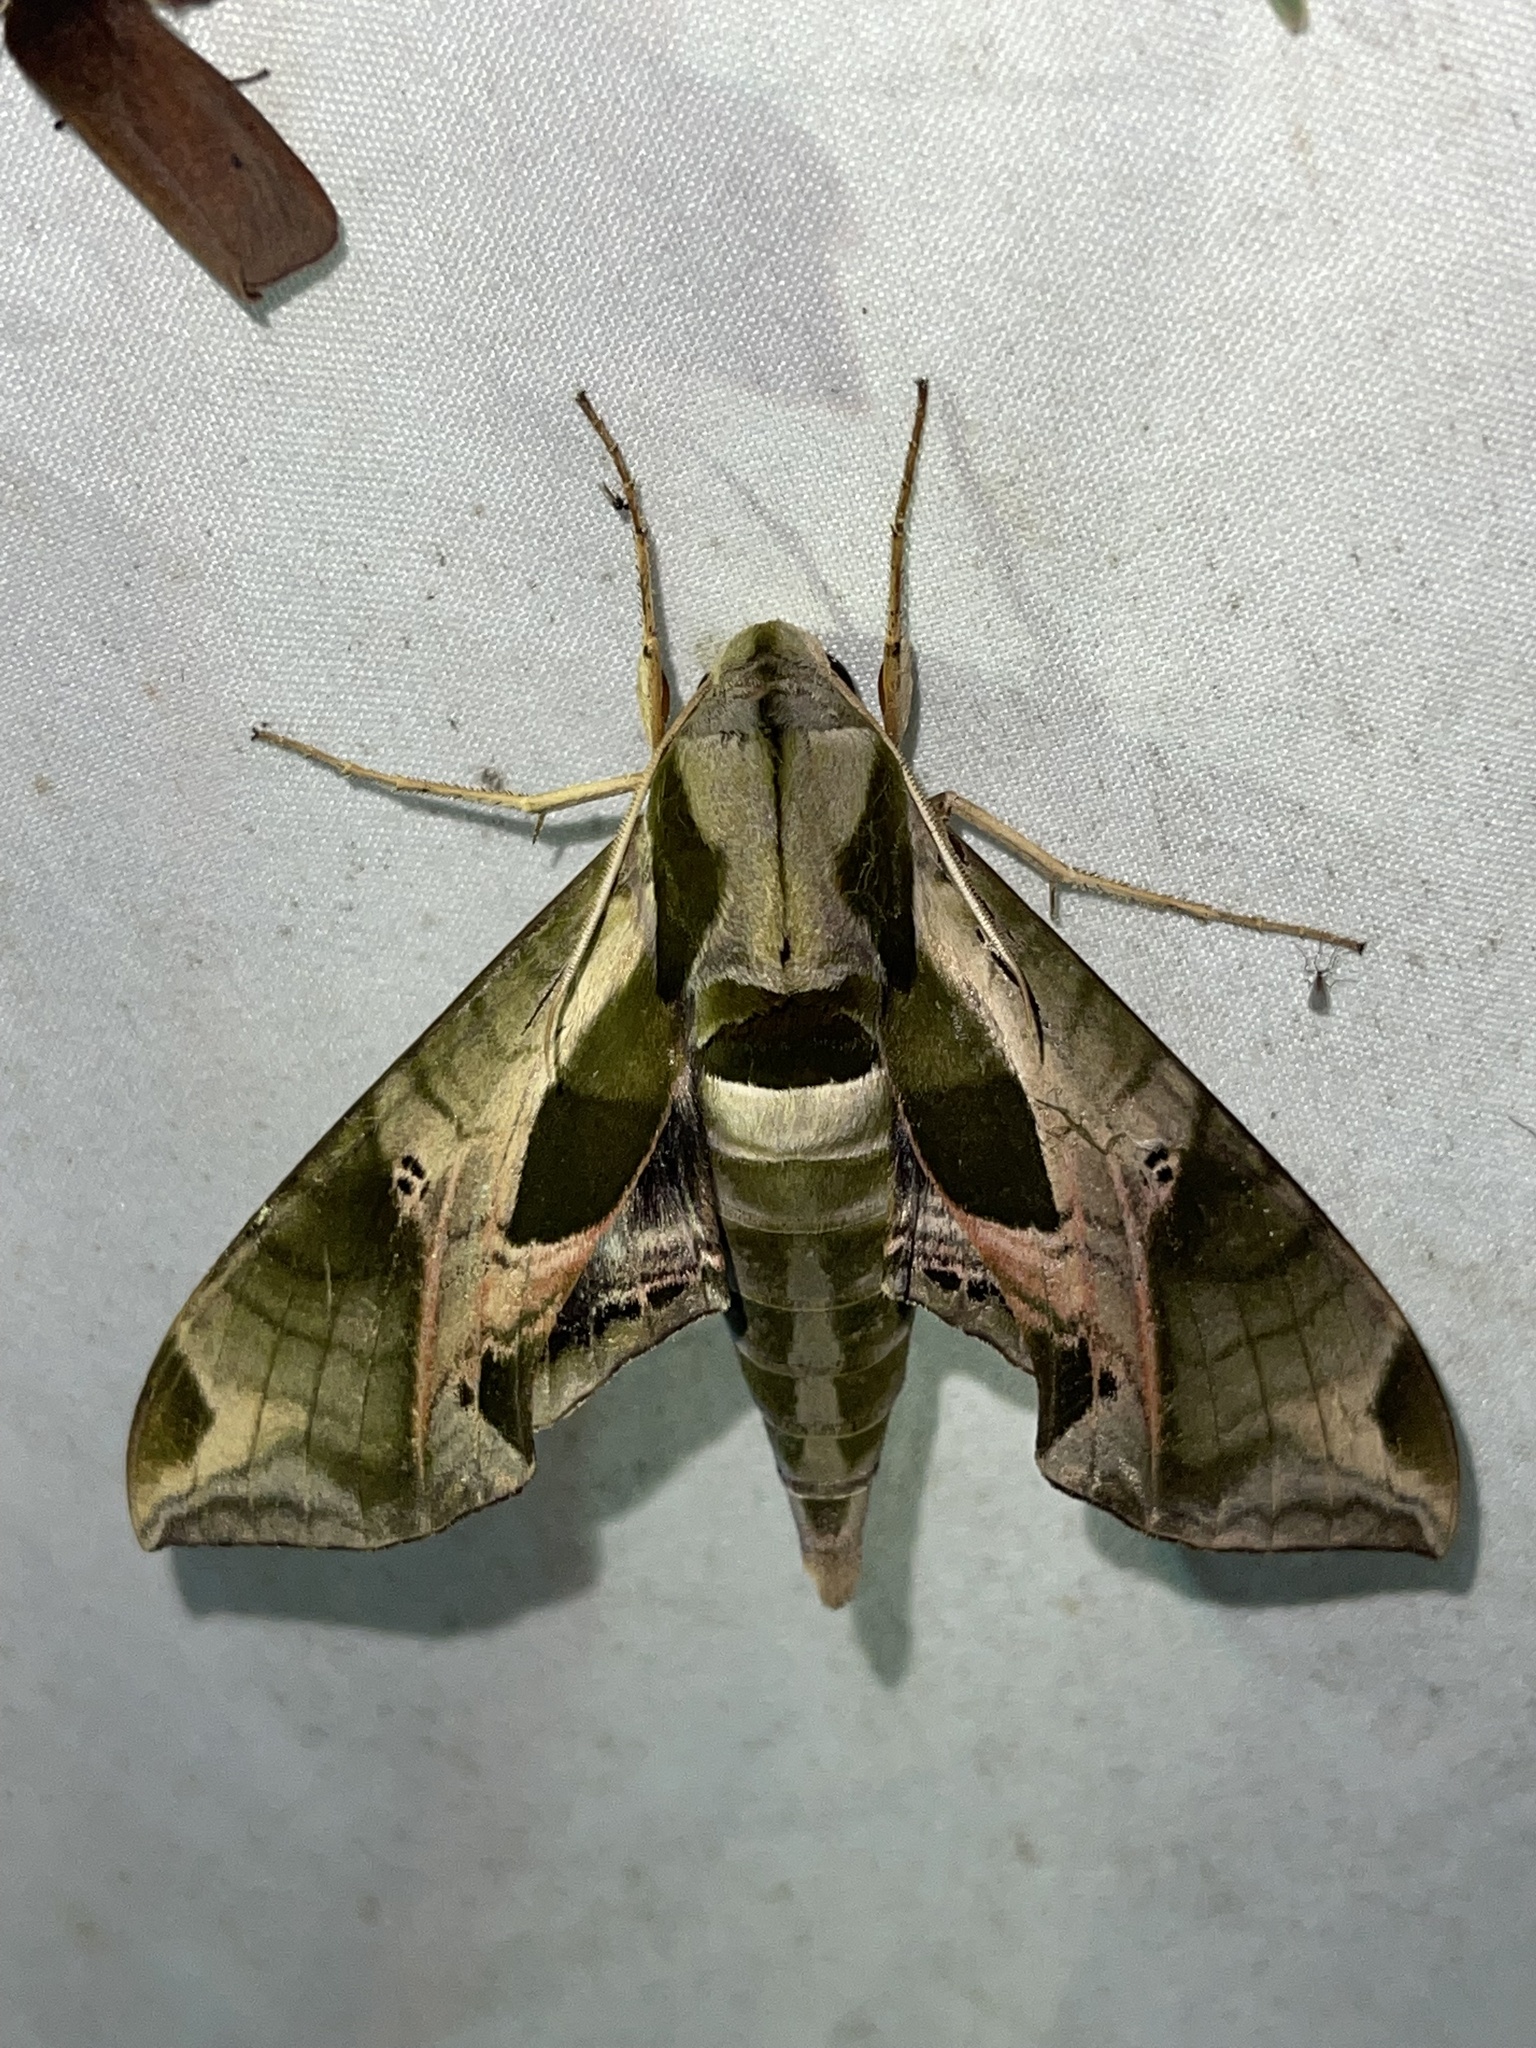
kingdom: Animalia
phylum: Arthropoda
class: Insecta
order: Lepidoptera
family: Sphingidae
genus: Eumorpha
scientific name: Eumorpha pandorus
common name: Pandora sphinx
